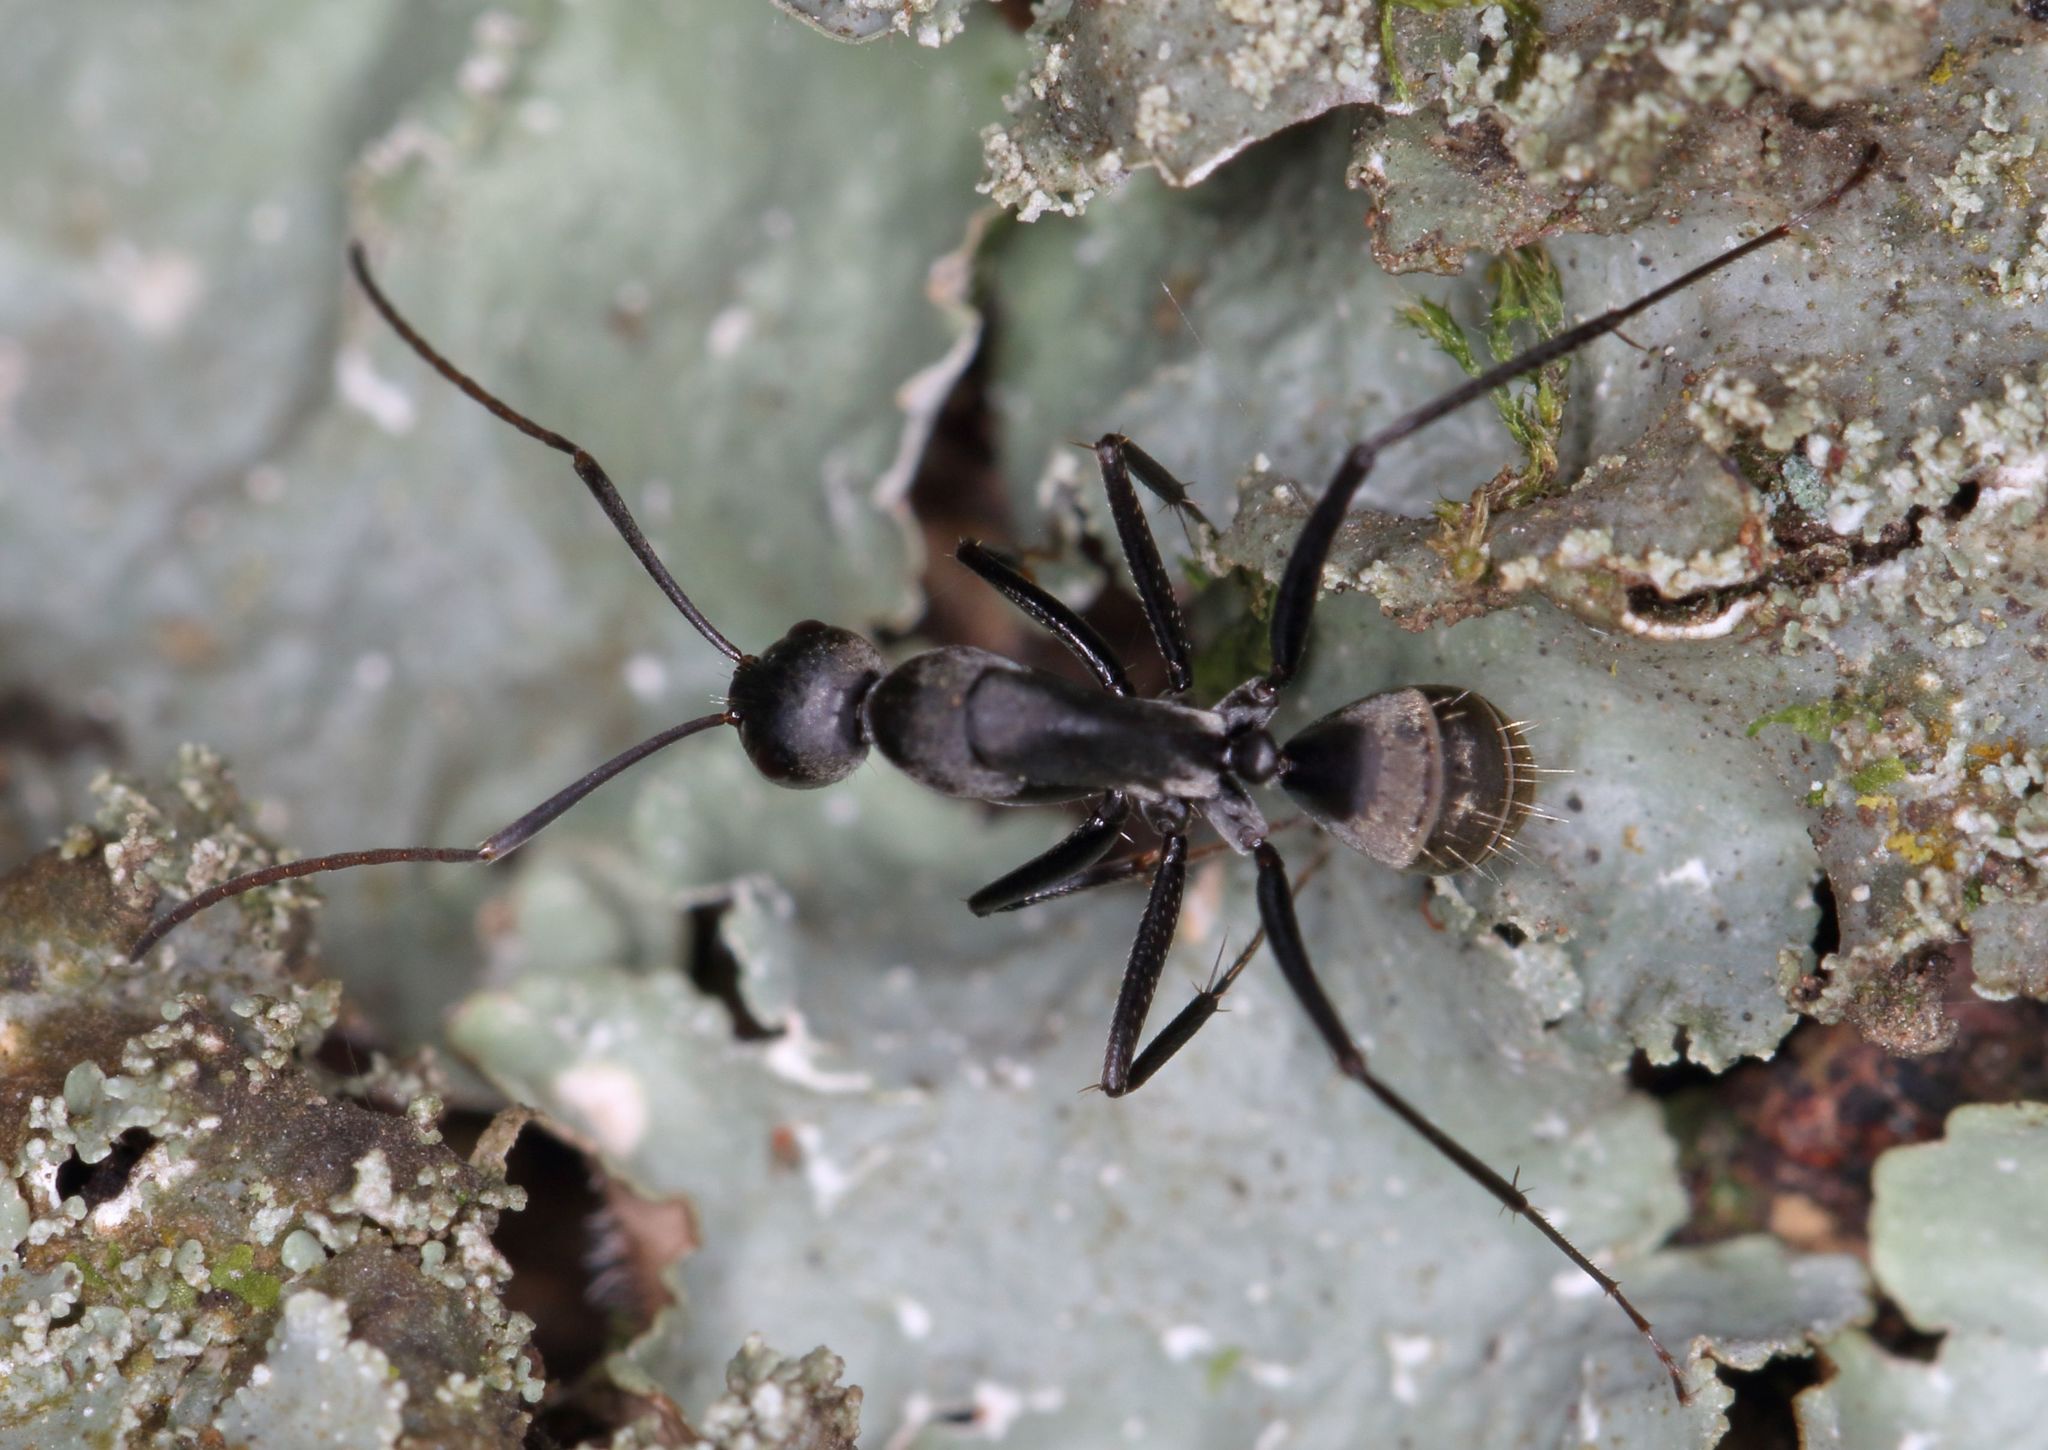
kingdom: Animalia
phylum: Arthropoda
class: Insecta
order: Hymenoptera
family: Formicidae
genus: Camponotus
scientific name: Camponotus cinctellus
